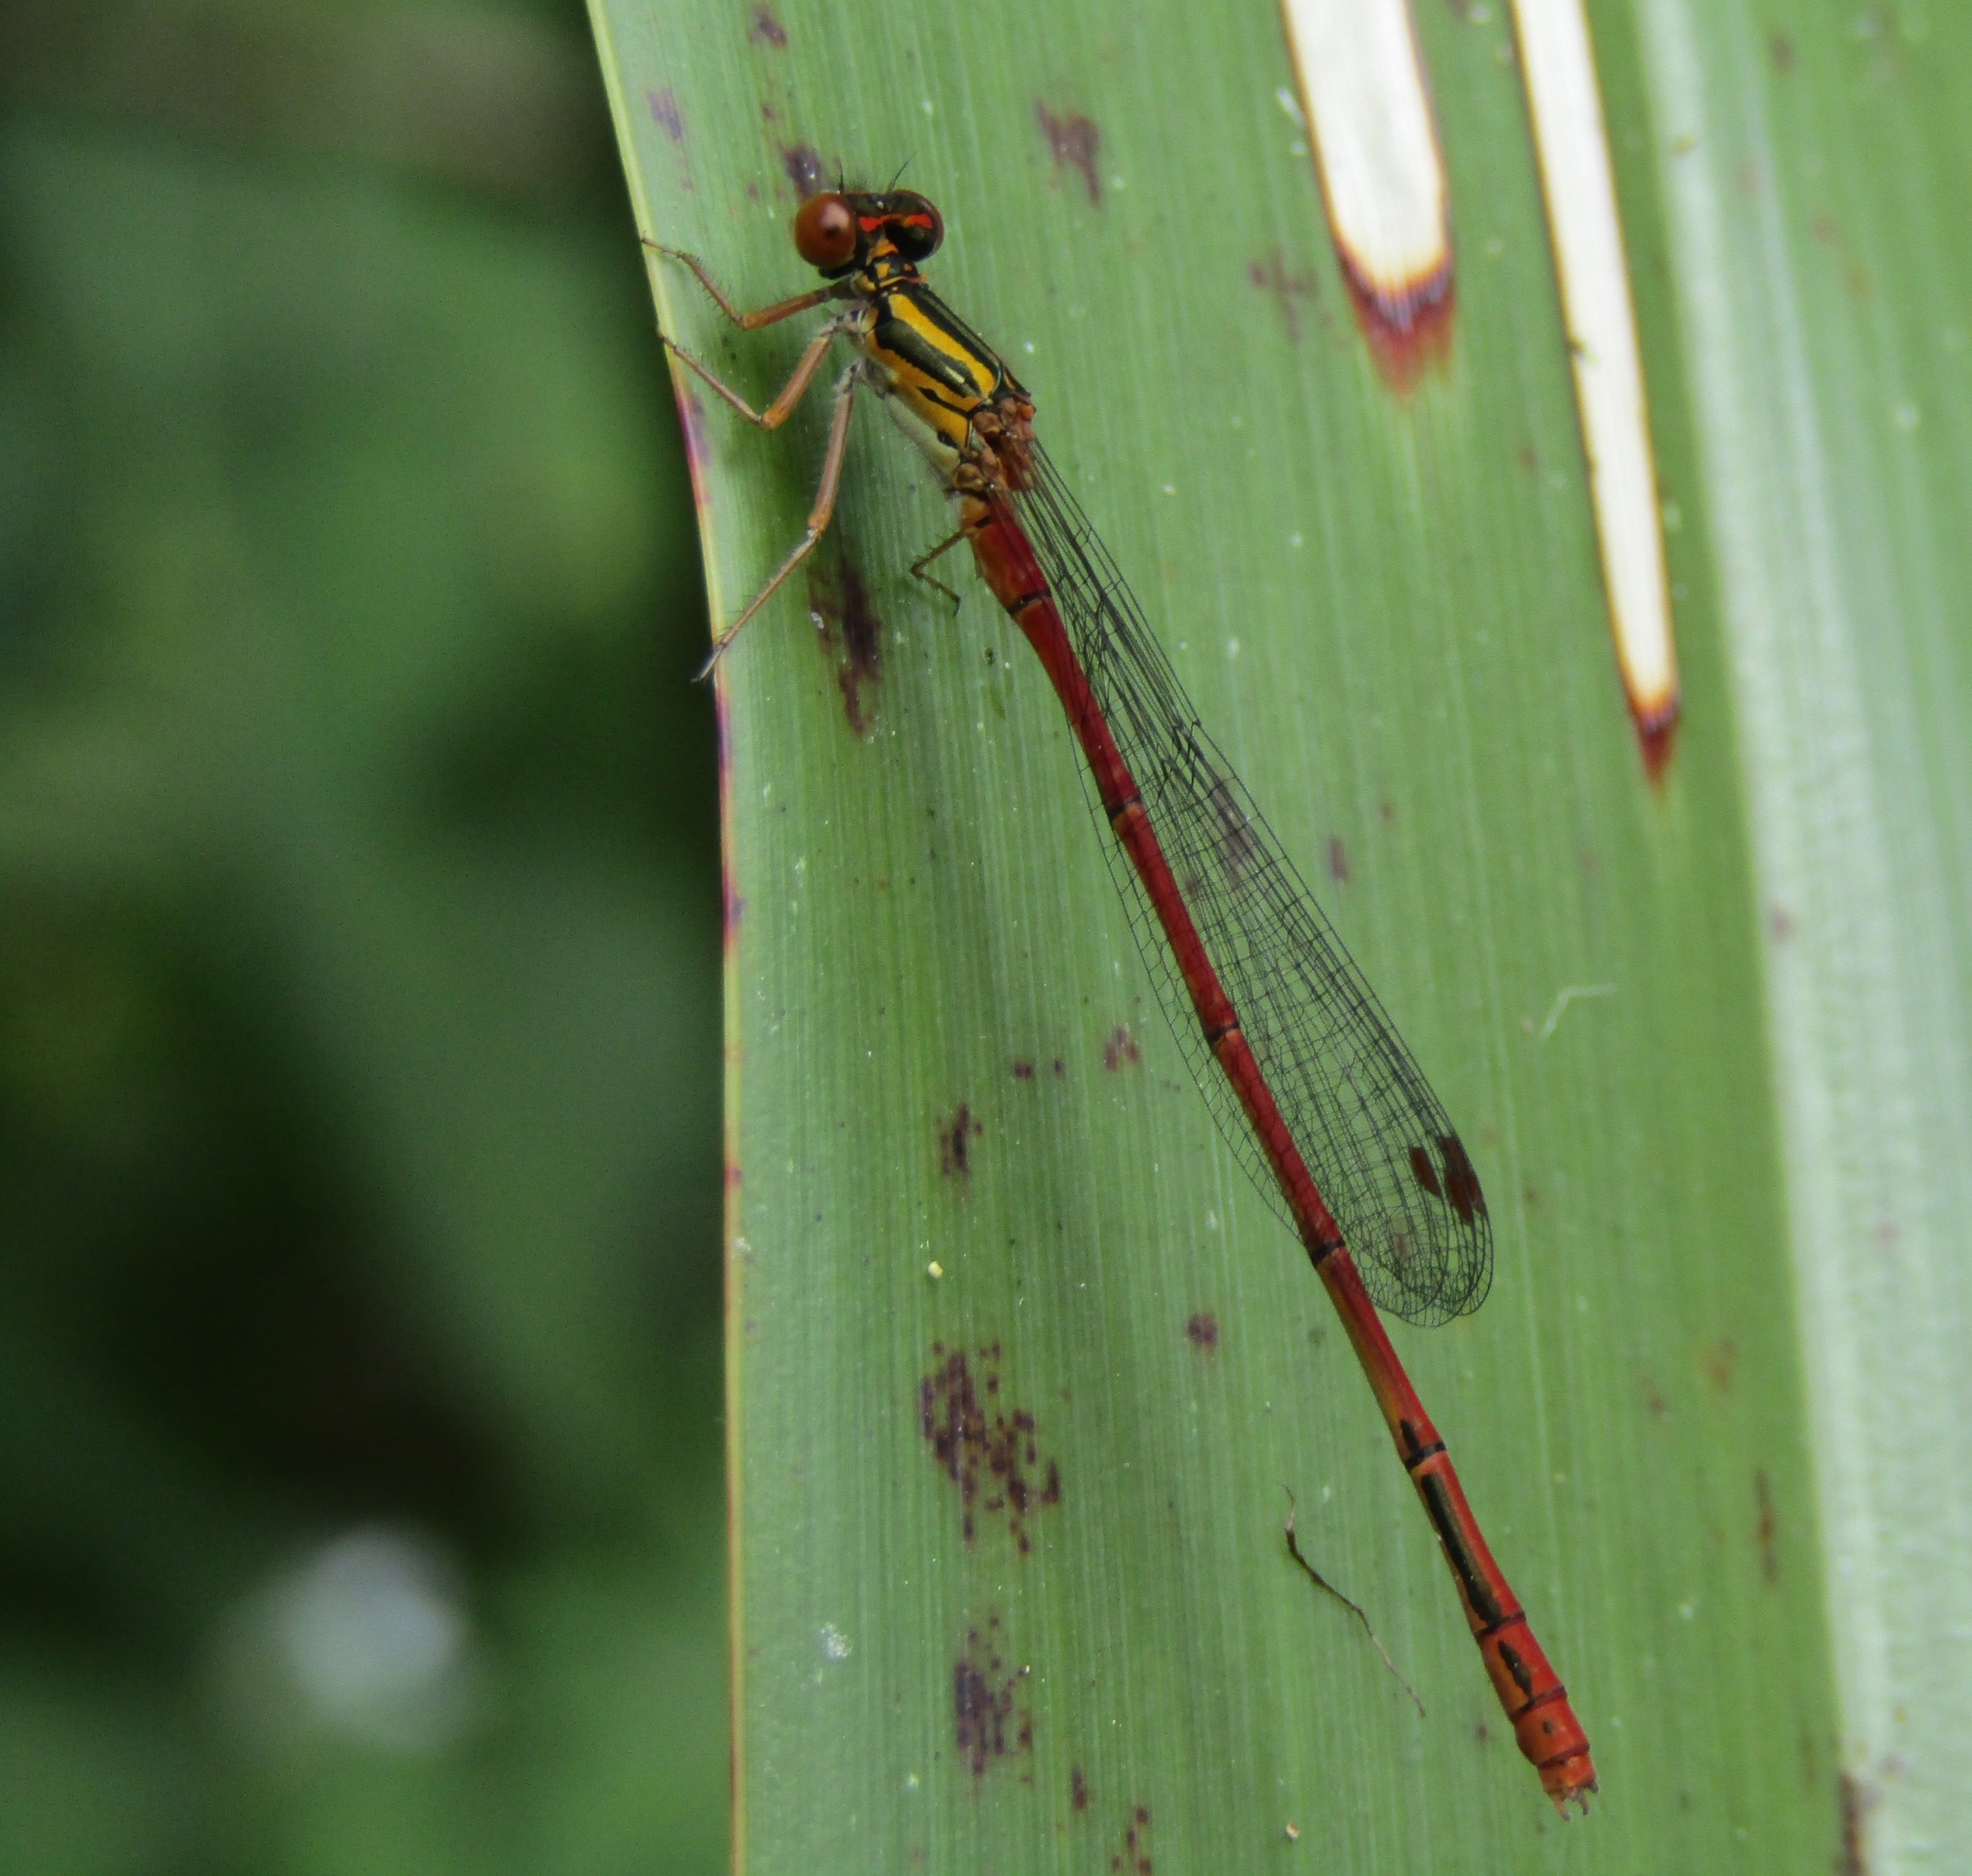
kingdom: Animalia
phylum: Arthropoda
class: Insecta
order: Odonata
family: Coenagrionidae
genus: Xanthocnemis
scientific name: Xanthocnemis zealandica
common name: Common redcoat damselfly
